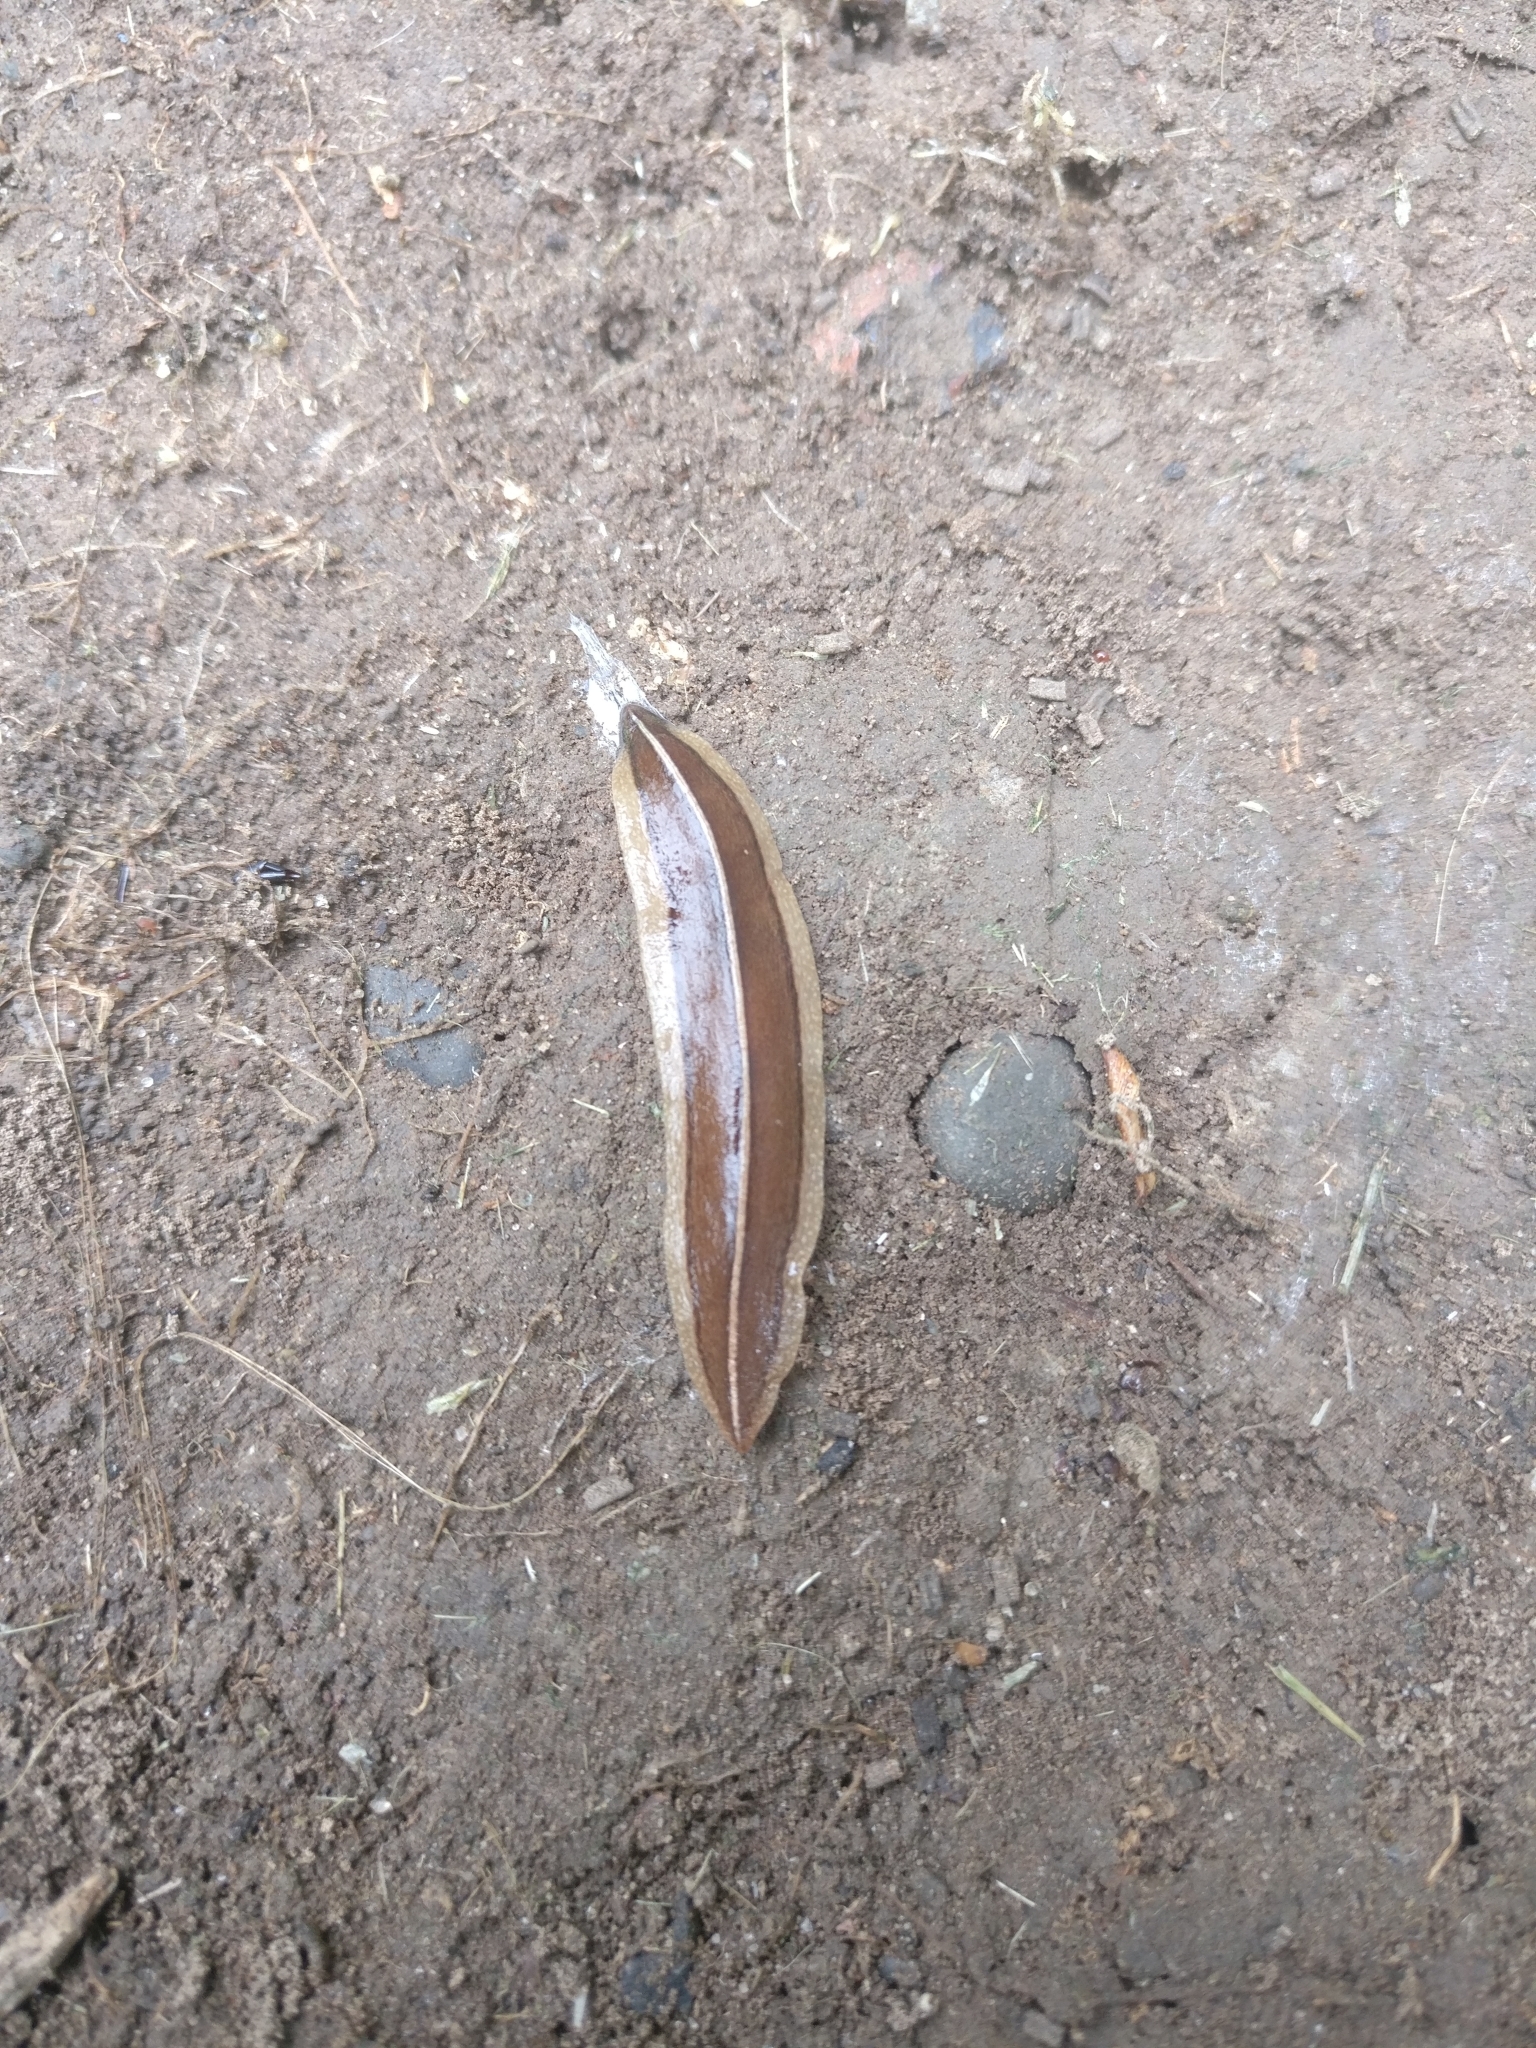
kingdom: Animalia
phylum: Platyhelminthes
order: Tricladida
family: Geoplanidae
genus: Newzealandia
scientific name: Newzealandia graffii
